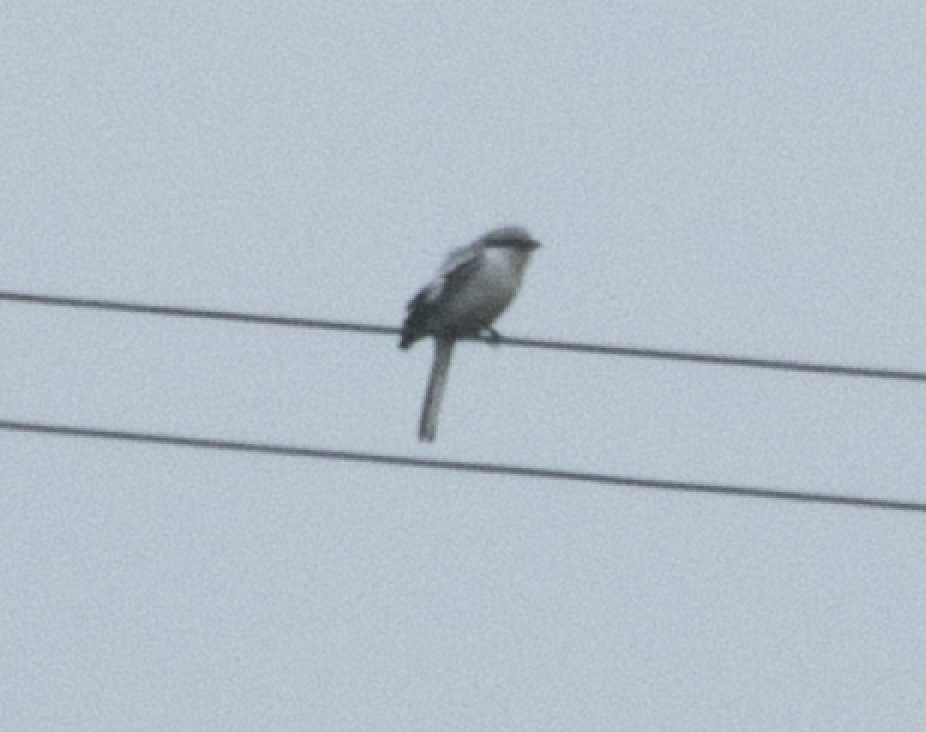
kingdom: Animalia
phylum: Chordata
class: Aves
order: Passeriformes
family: Laniidae
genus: Lanius
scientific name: Lanius excubitor
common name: Great grey shrike
